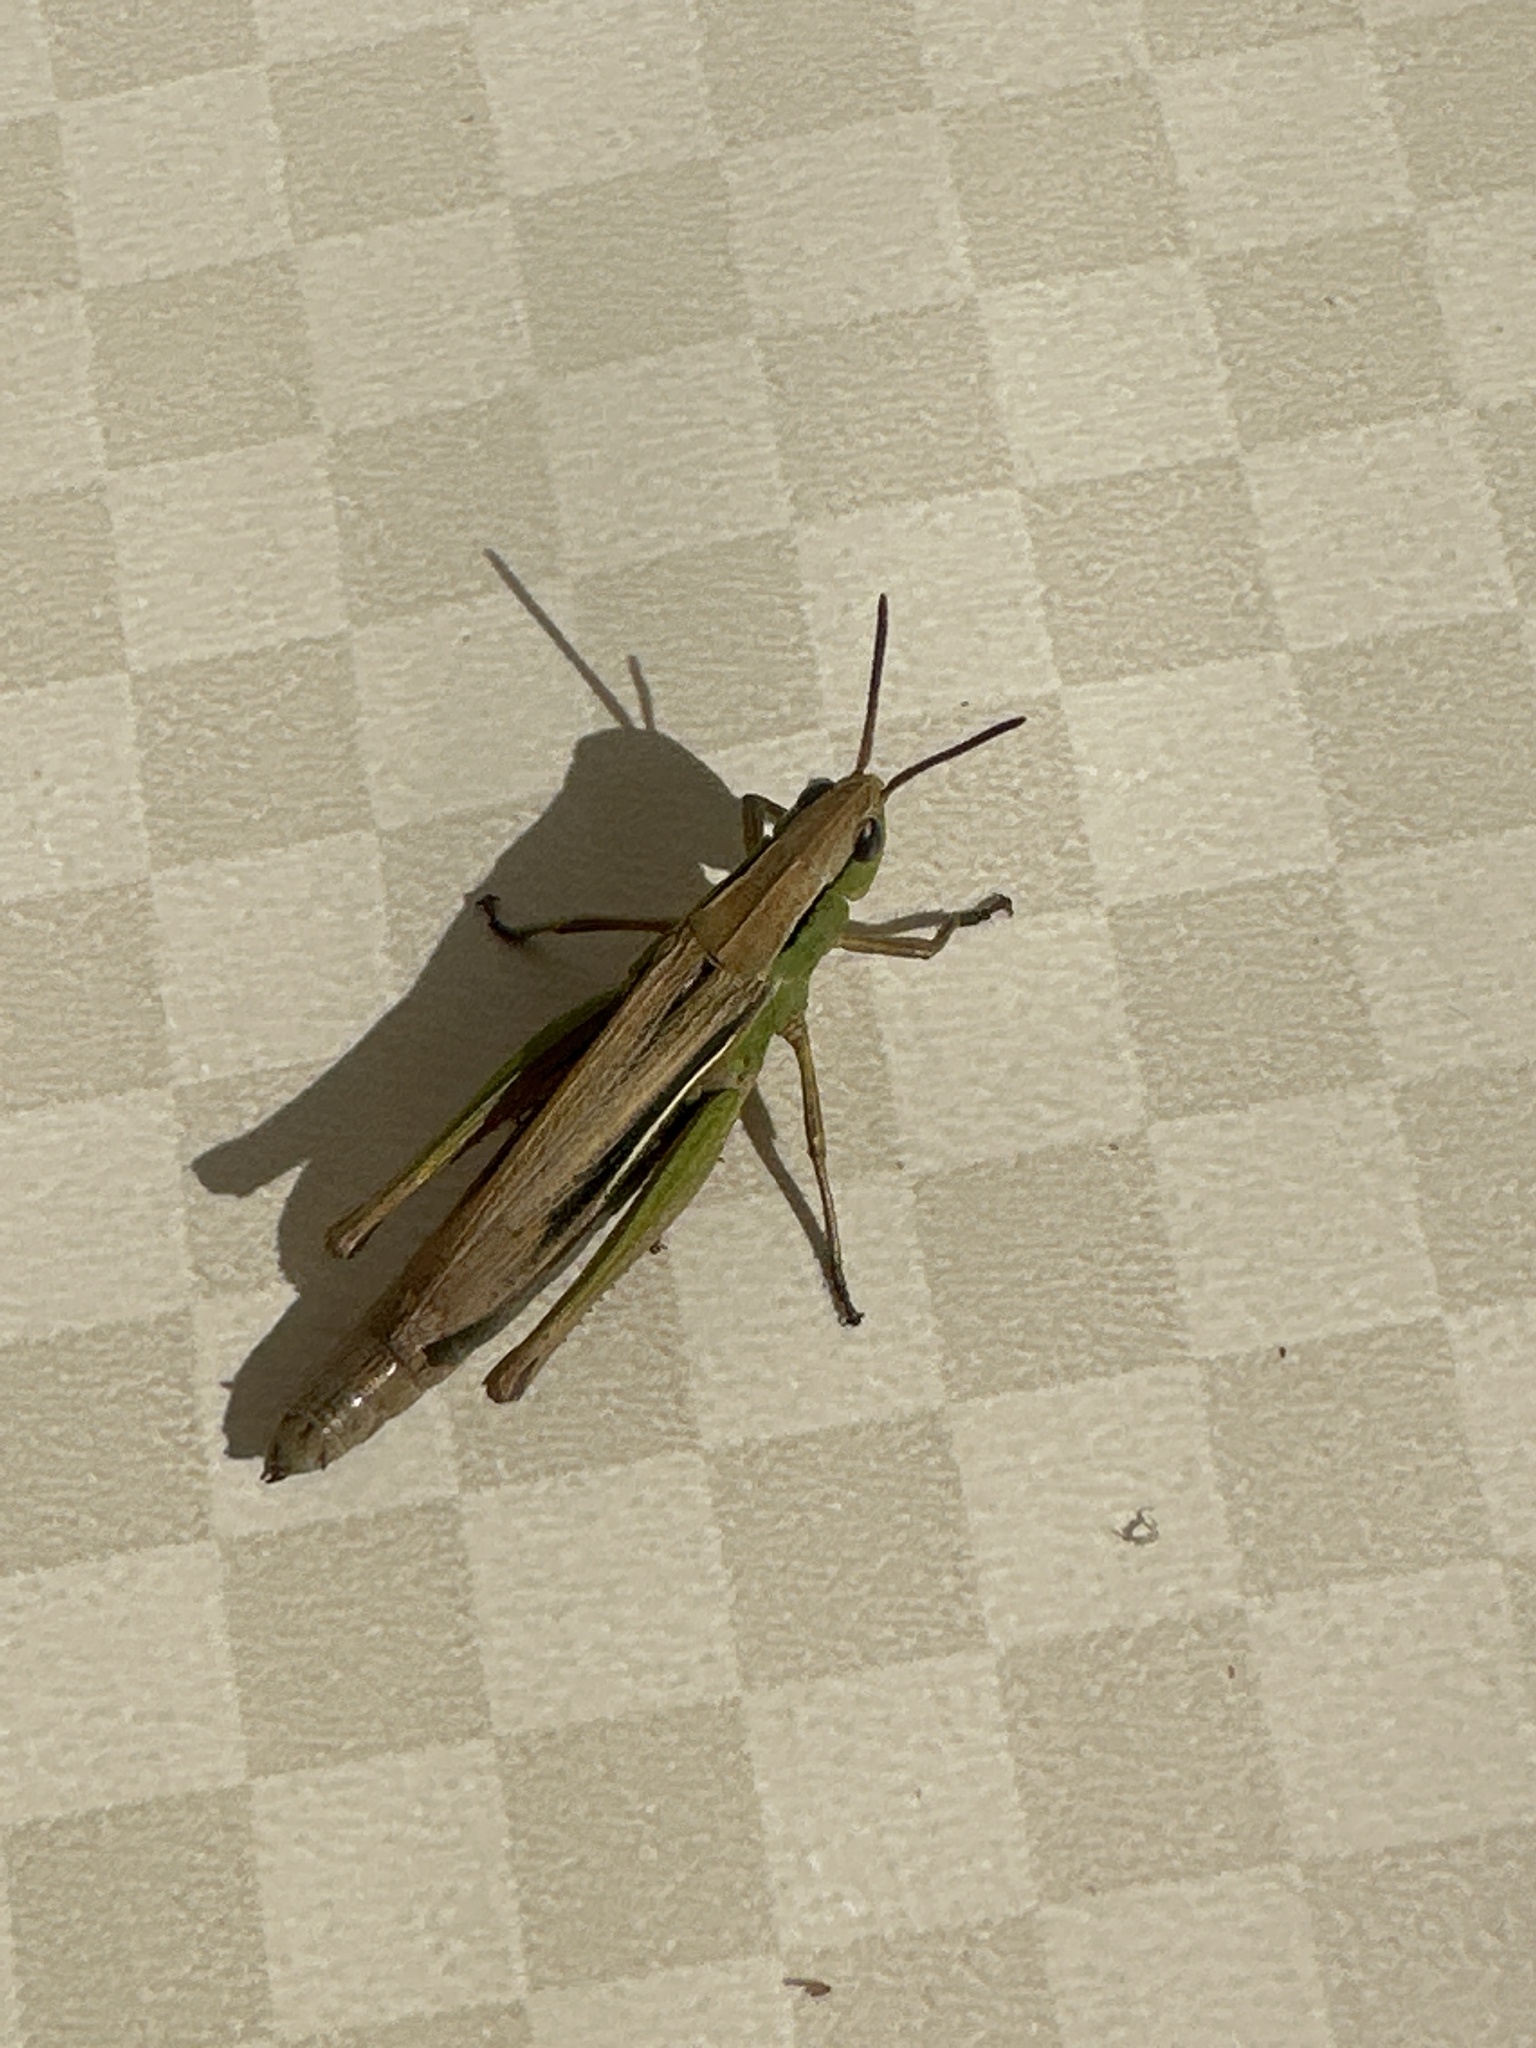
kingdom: Animalia
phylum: Arthropoda
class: Insecta
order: Orthoptera
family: Acrididae
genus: Chorthippus
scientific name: Chorthippus albomarginatus
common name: Lesser marsh grasshopper
